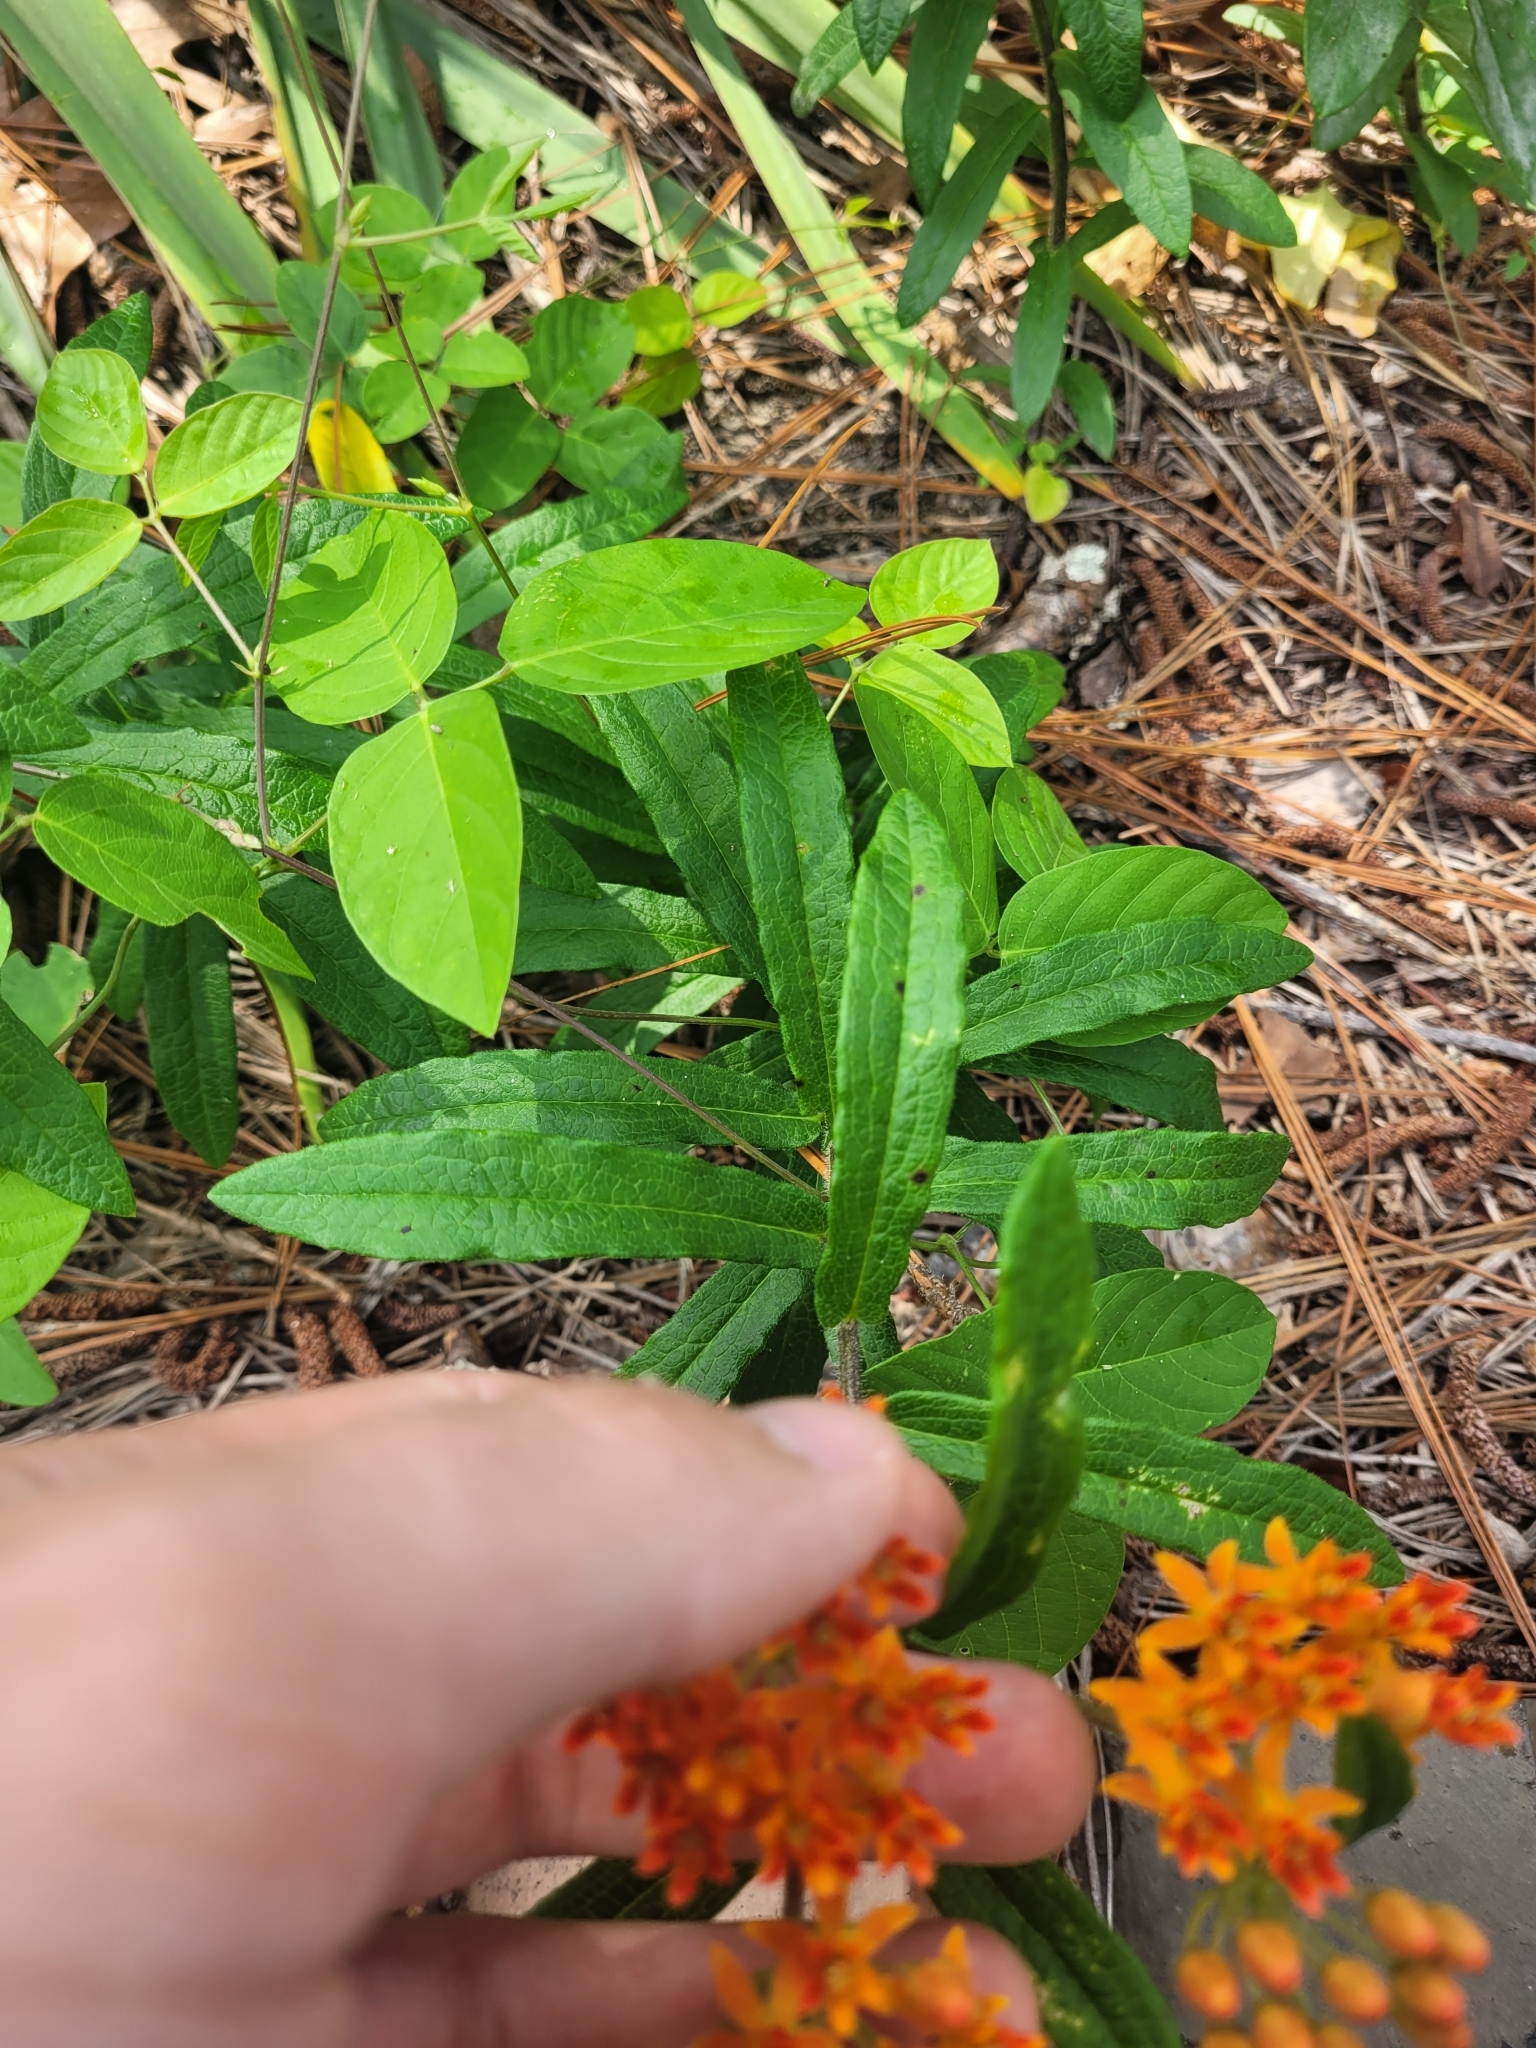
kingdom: Plantae
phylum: Tracheophyta
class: Magnoliopsida
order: Gentianales
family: Apocynaceae
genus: Asclepias
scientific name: Asclepias tuberosa
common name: Butterfly milkweed
